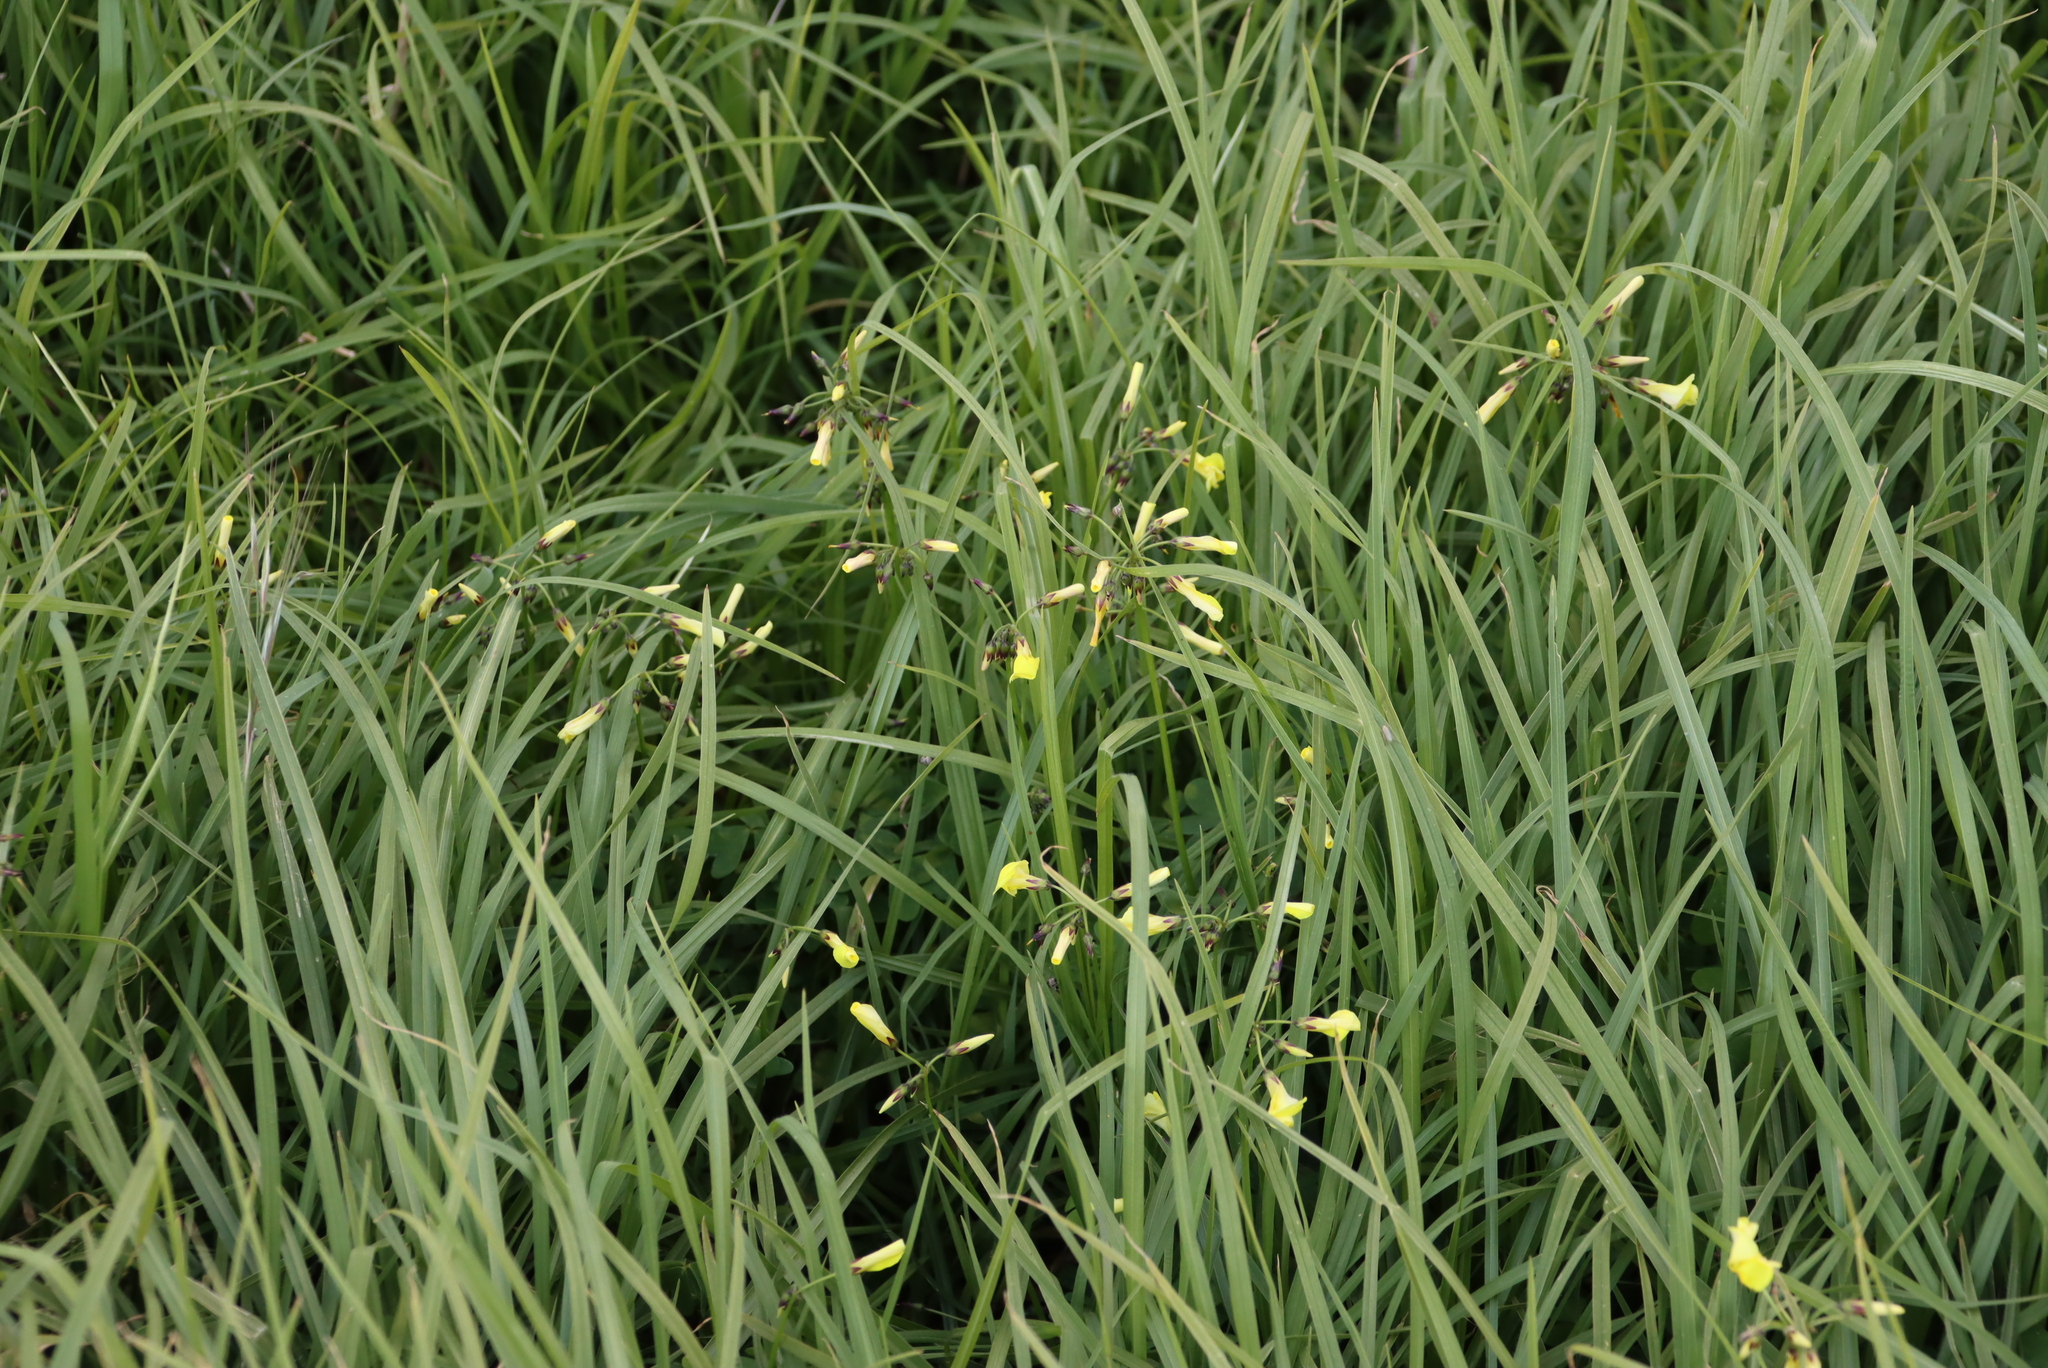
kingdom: Plantae
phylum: Tracheophyta
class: Magnoliopsida
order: Oxalidales
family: Oxalidaceae
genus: Oxalis
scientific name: Oxalis pes-caprae
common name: Bermuda-buttercup
